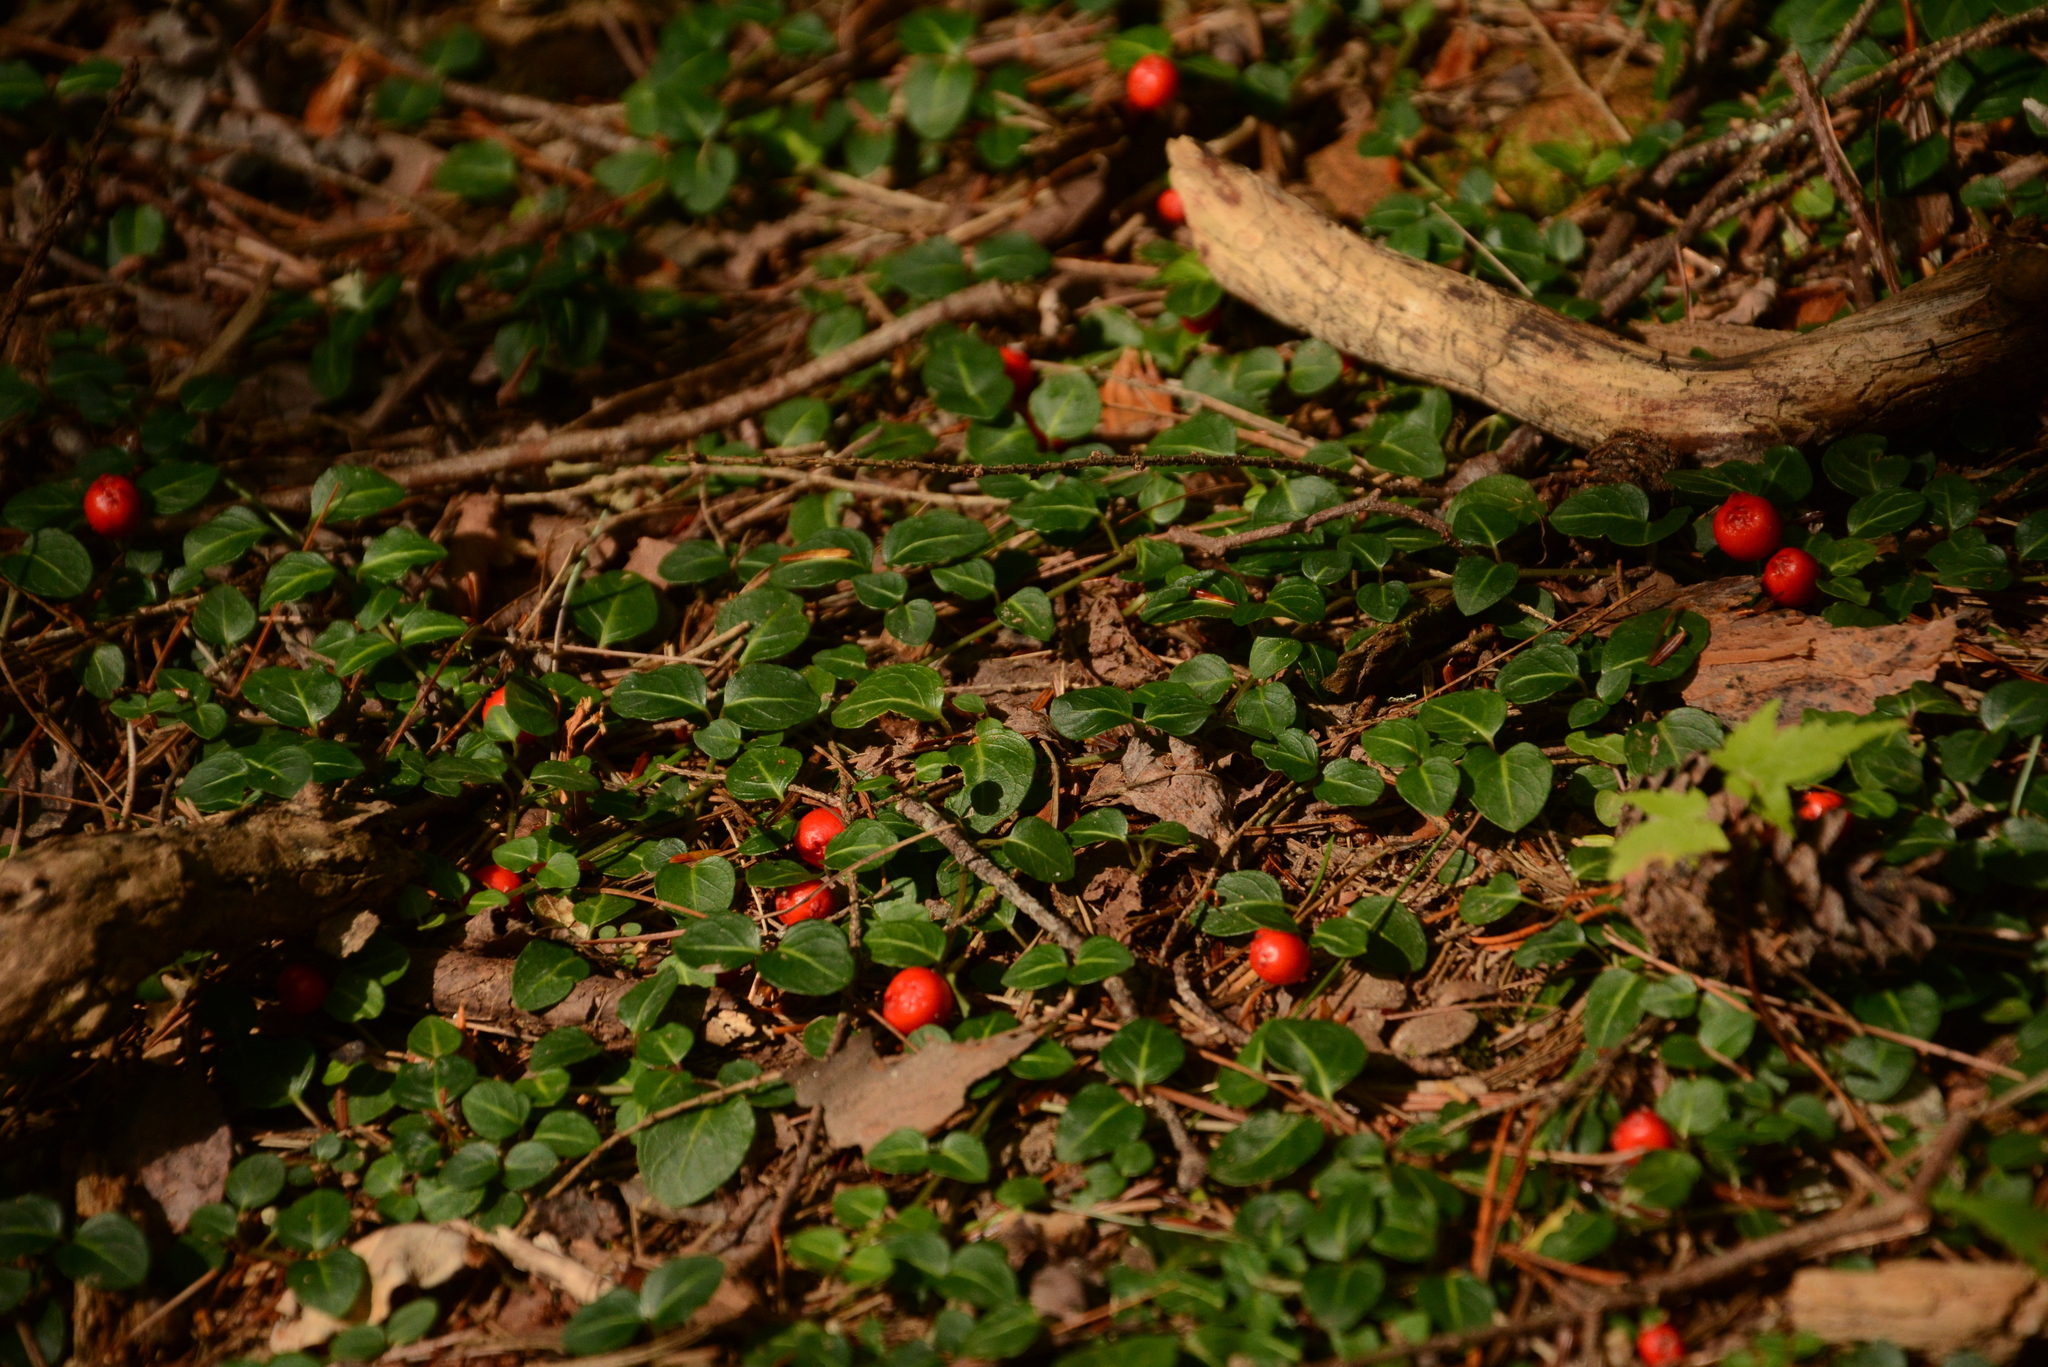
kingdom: Plantae
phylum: Tracheophyta
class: Magnoliopsida
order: Gentianales
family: Rubiaceae
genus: Mitchella
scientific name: Mitchella repens
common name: Partridge-berry
